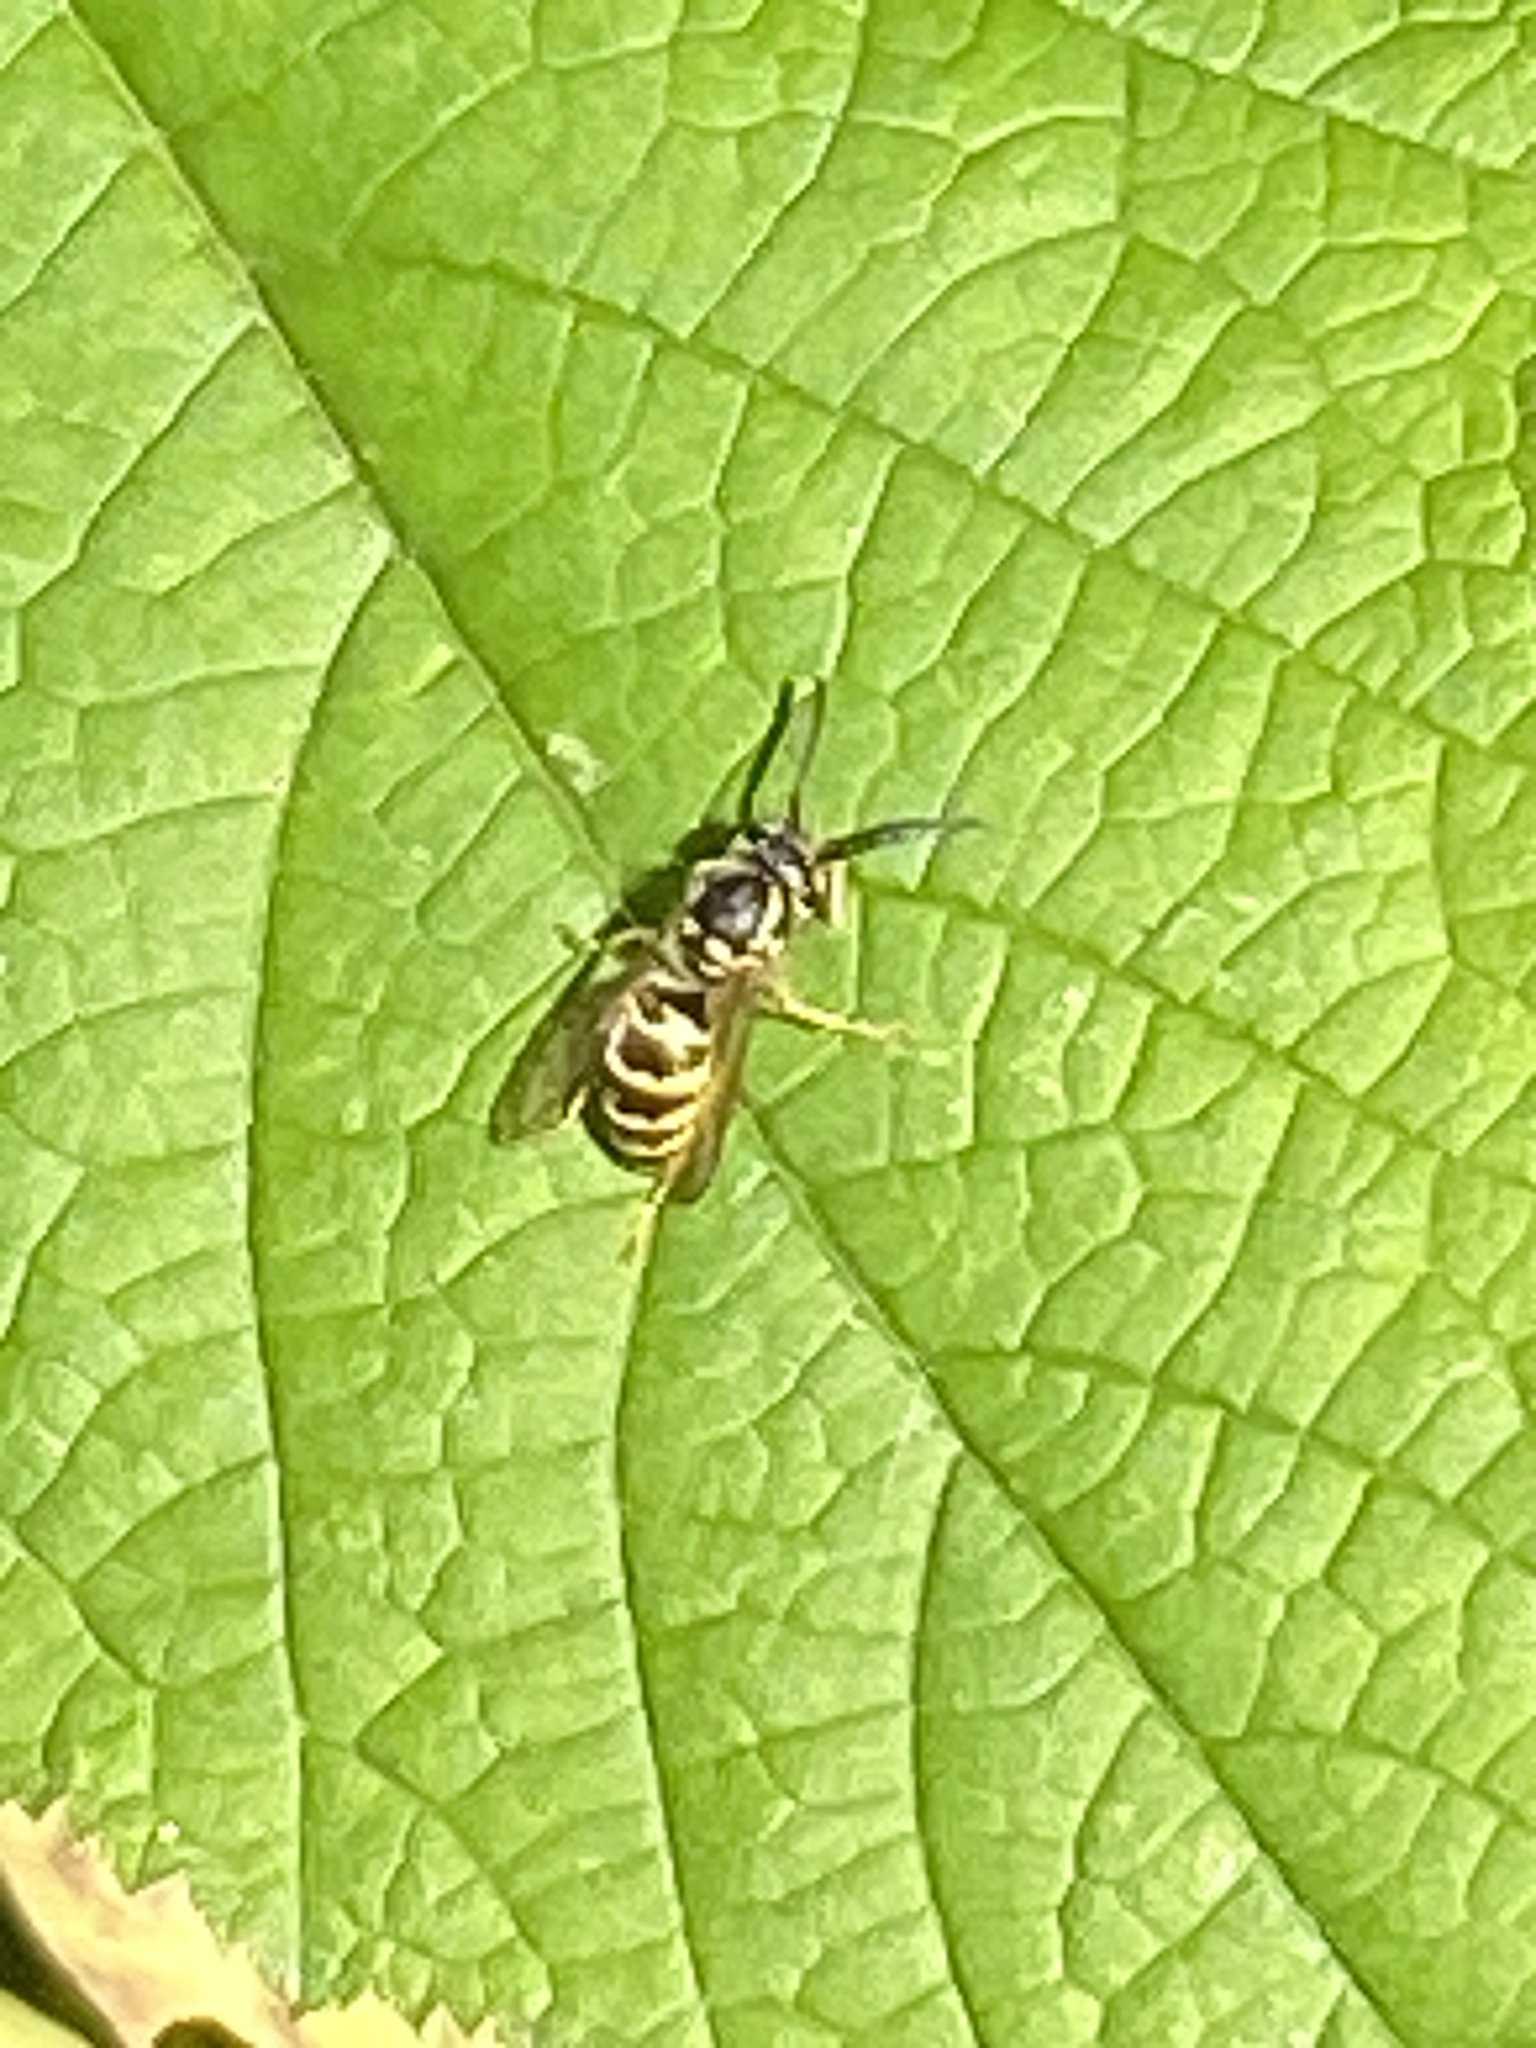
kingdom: Animalia
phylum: Arthropoda
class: Insecta
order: Hymenoptera
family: Vespidae
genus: Vespula
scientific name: Vespula maculifrons
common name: Eastern yellowjacket
